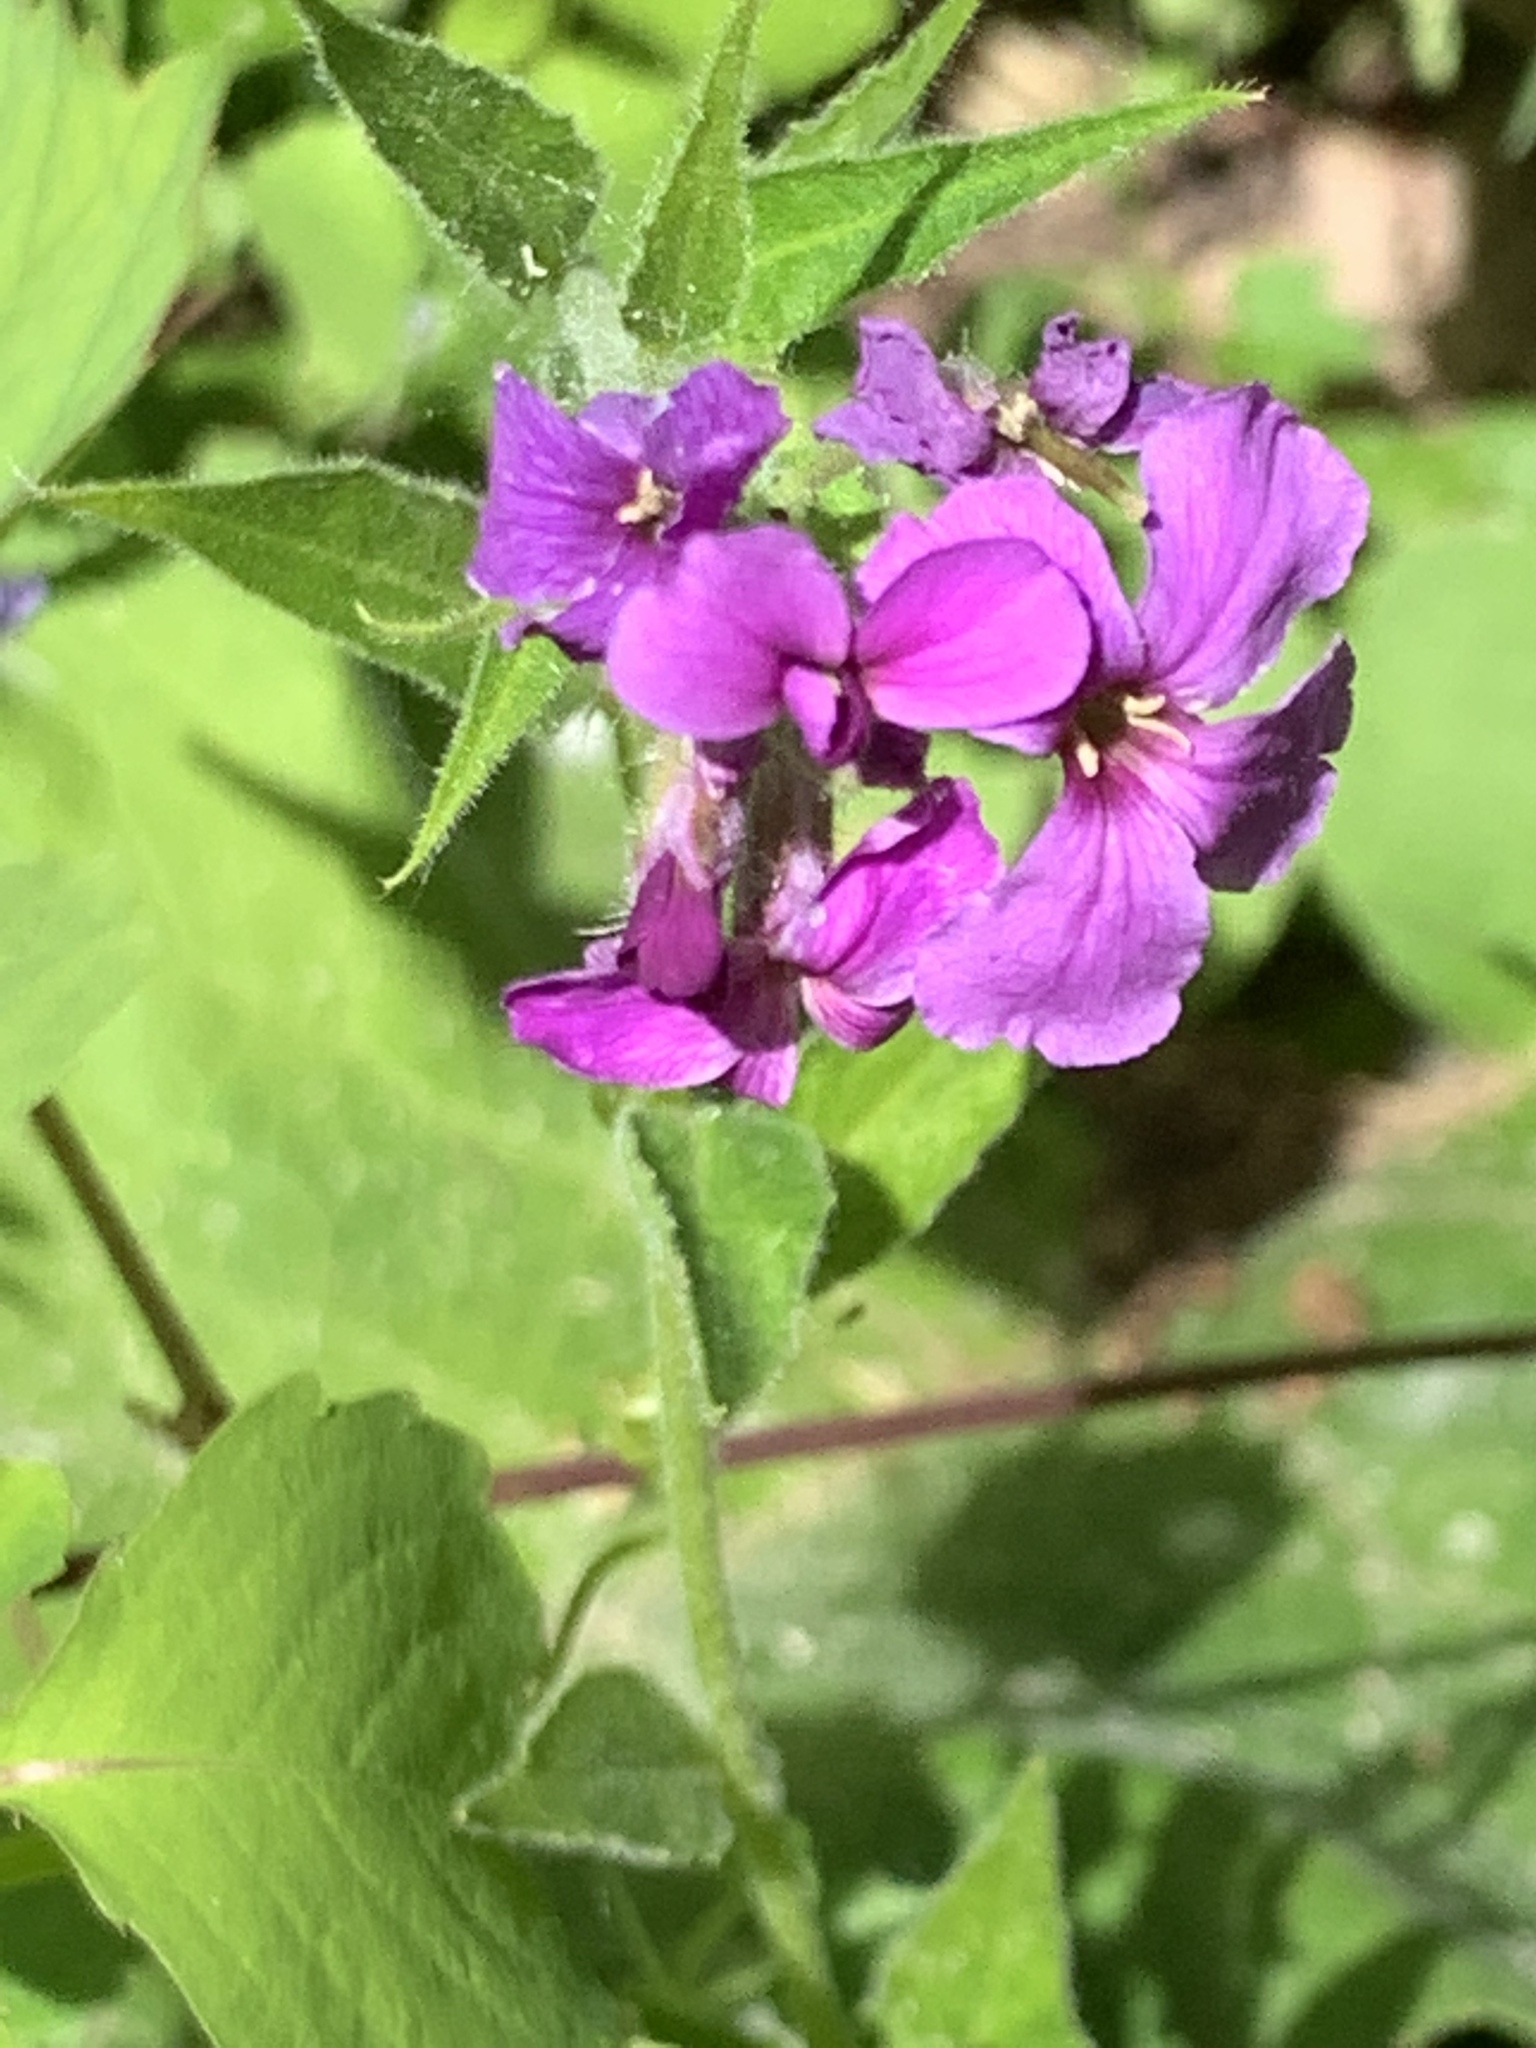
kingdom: Plantae
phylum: Tracheophyta
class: Magnoliopsida
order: Brassicales
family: Brassicaceae
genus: Hesperis
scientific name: Hesperis matronalis
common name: Dame's-violet
